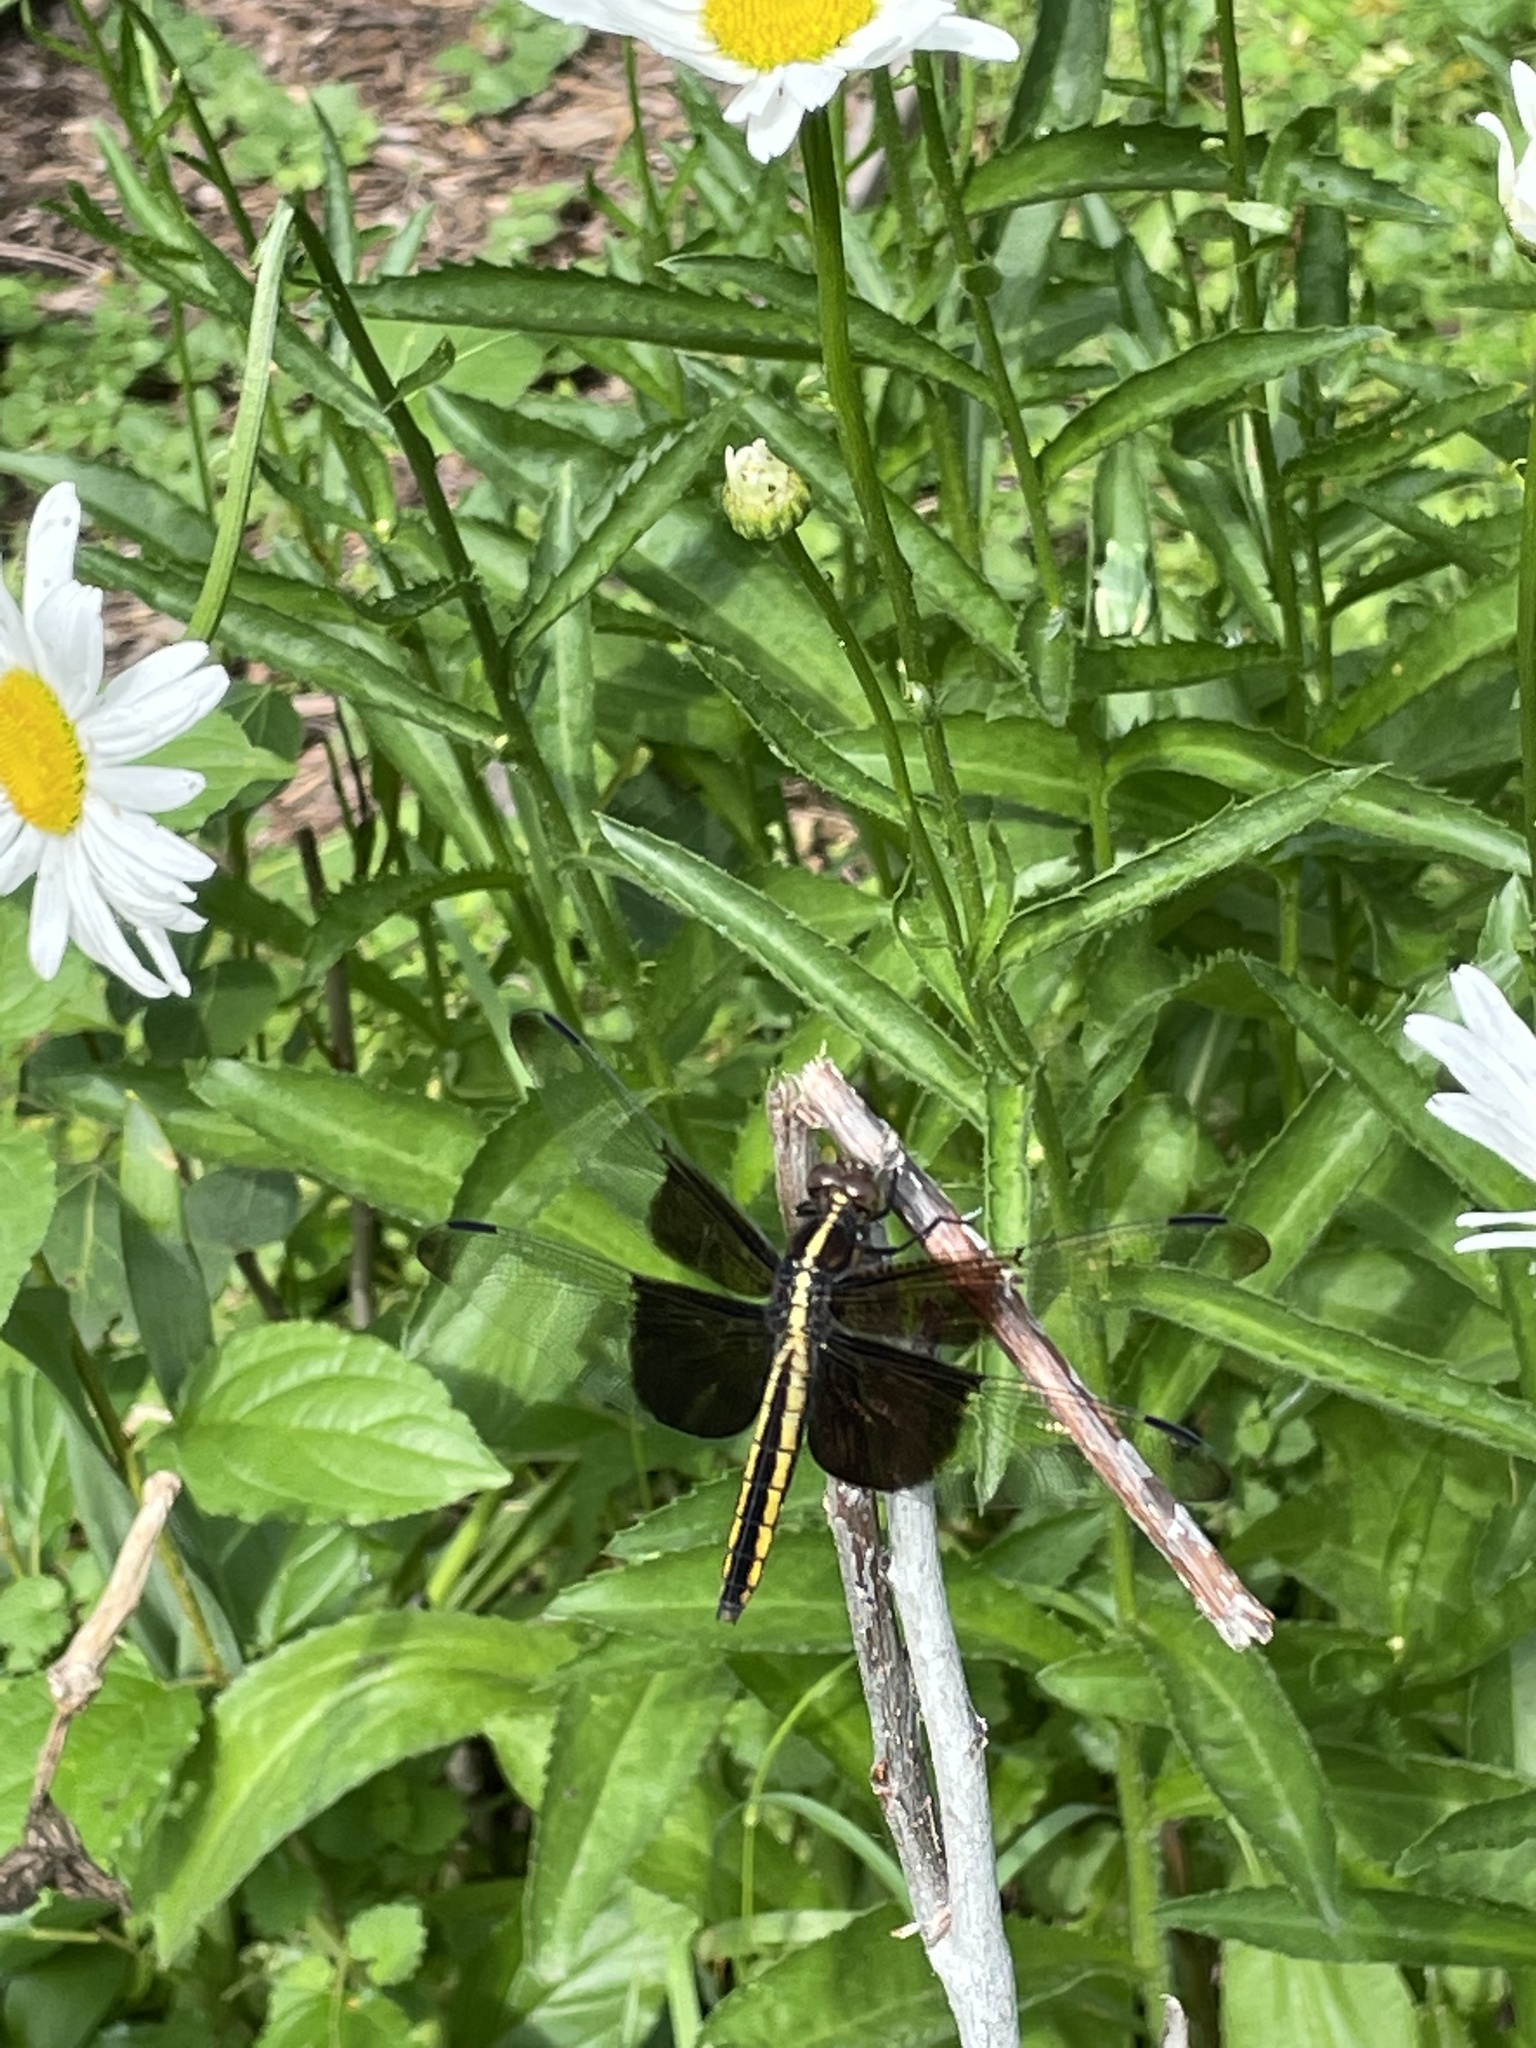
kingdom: Animalia
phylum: Arthropoda
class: Insecta
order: Odonata
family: Libellulidae
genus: Libellula
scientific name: Libellula luctuosa
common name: Widow skimmer
